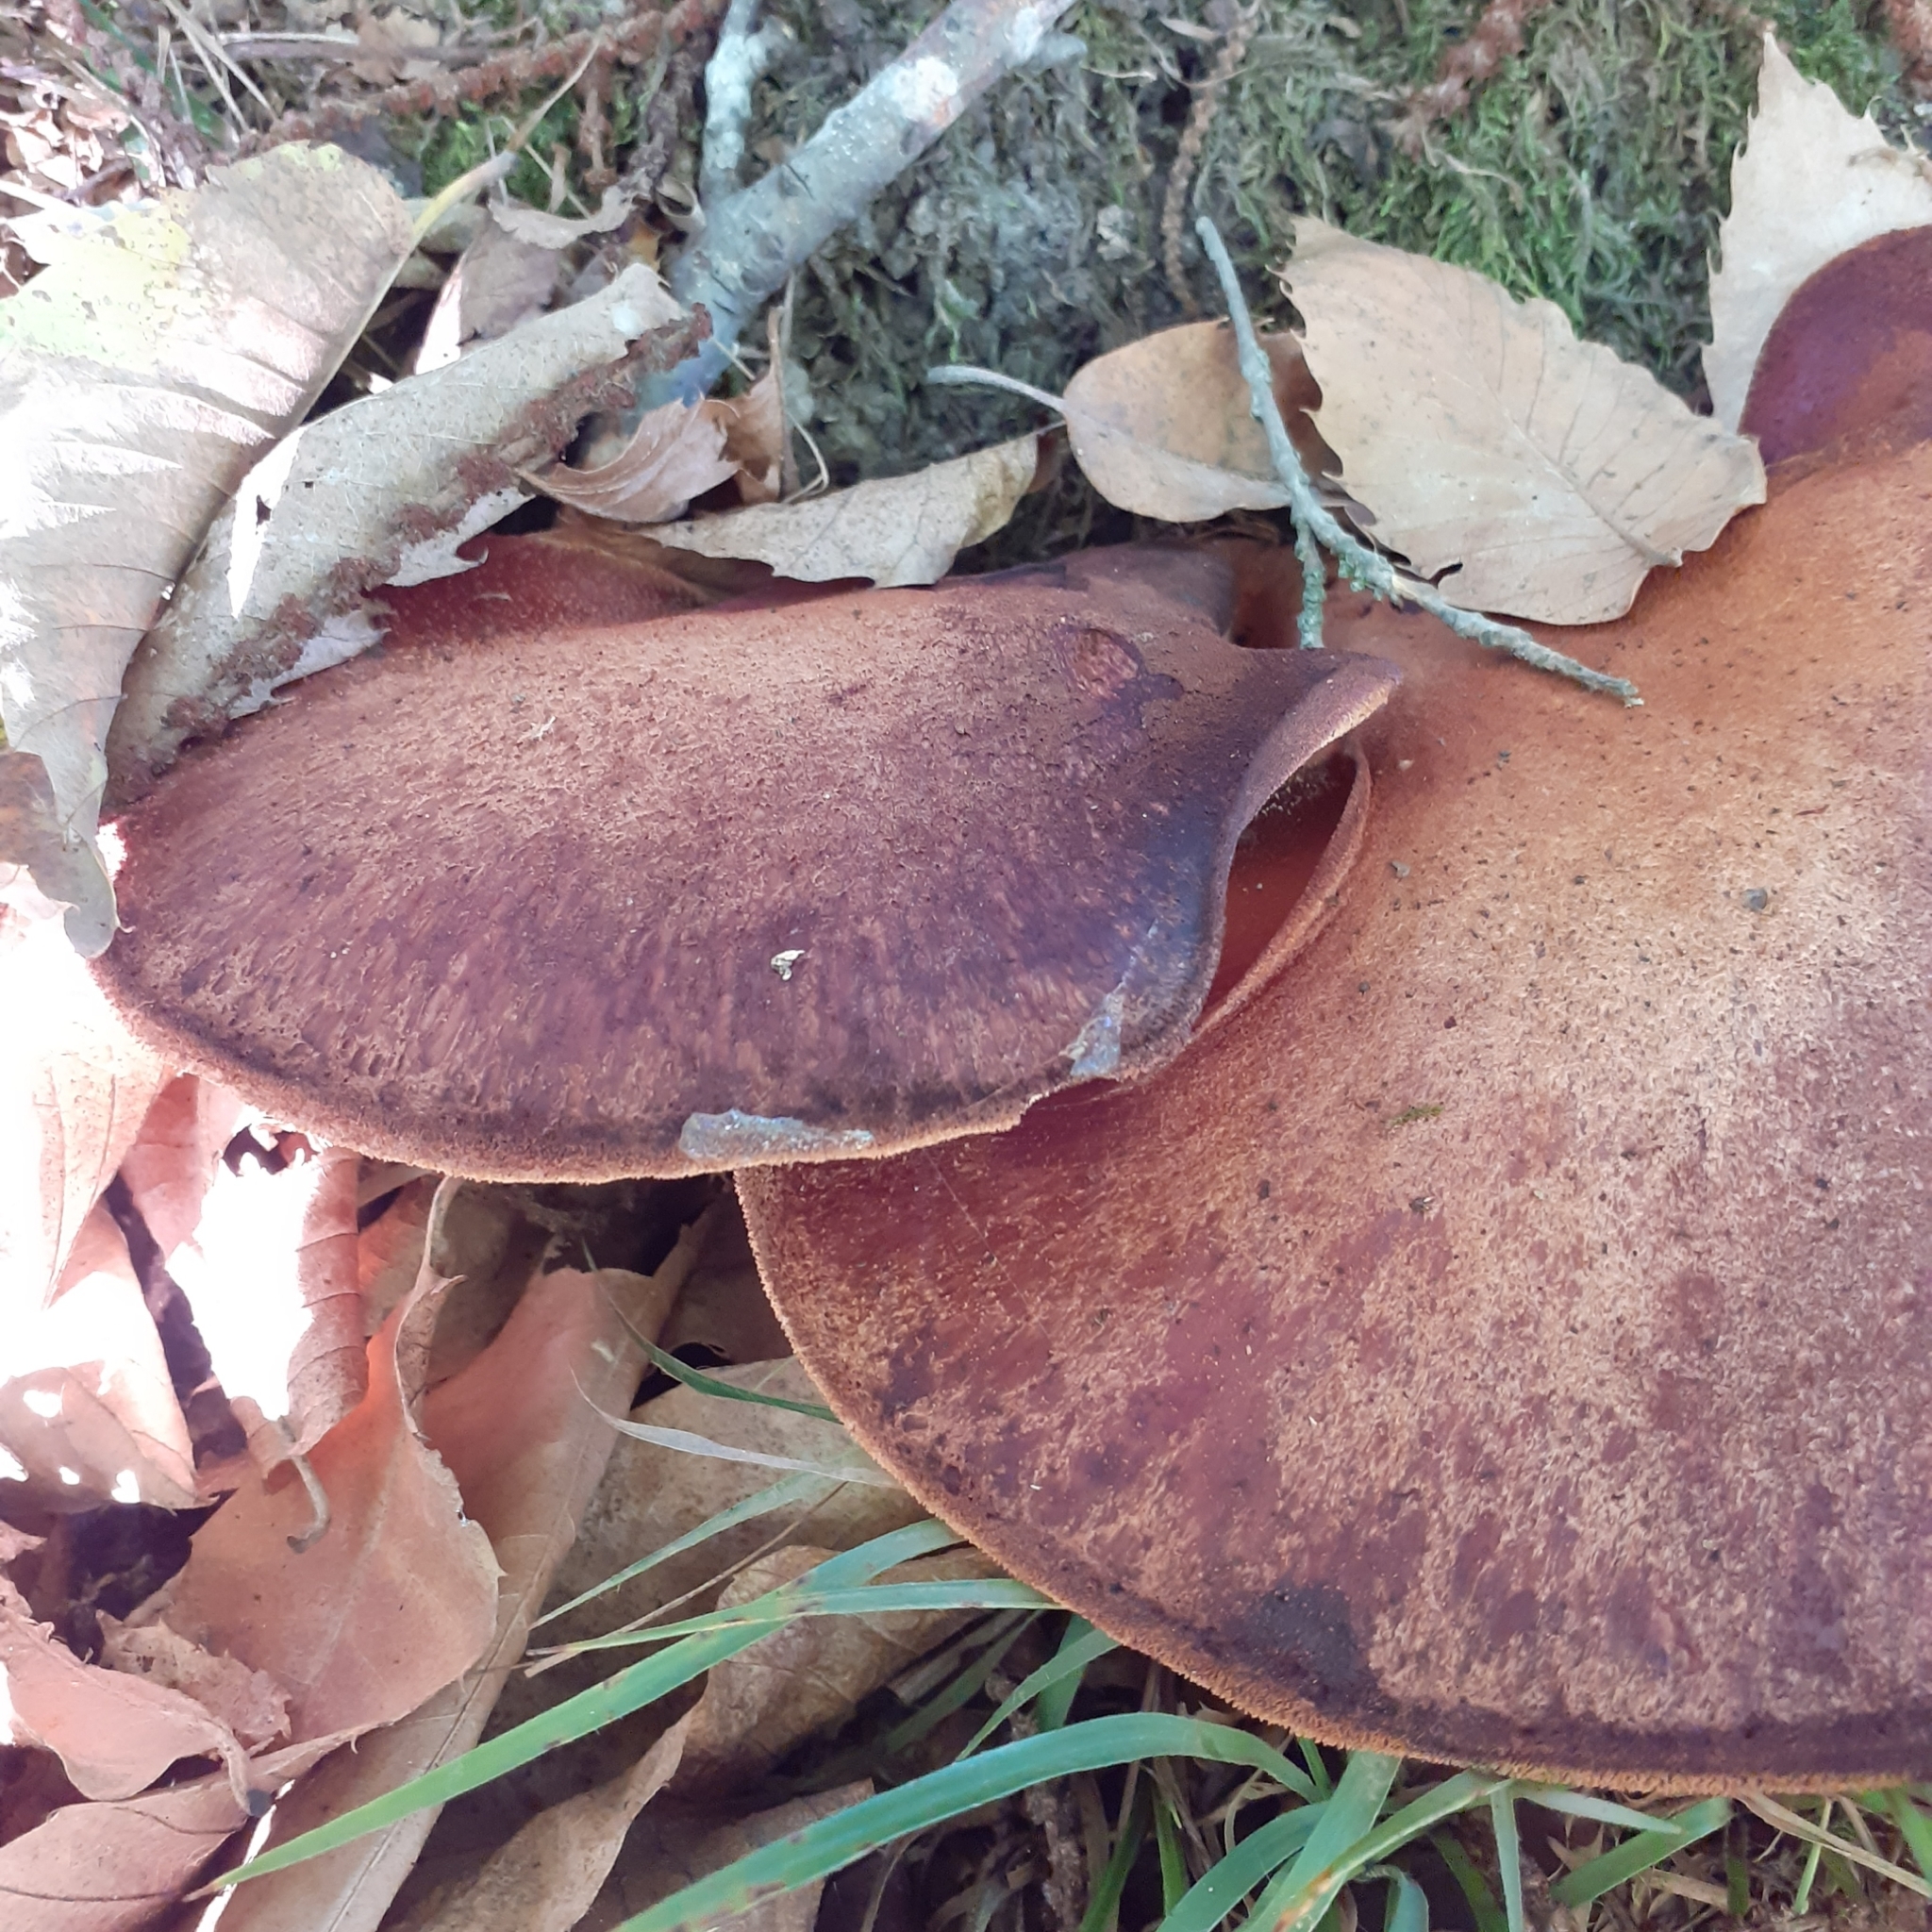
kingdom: Fungi
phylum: Basidiomycota
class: Agaricomycetes
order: Agaricales
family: Fistulinaceae
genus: Fistulina
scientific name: Fistulina hepatica
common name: Beef-steak fungus
